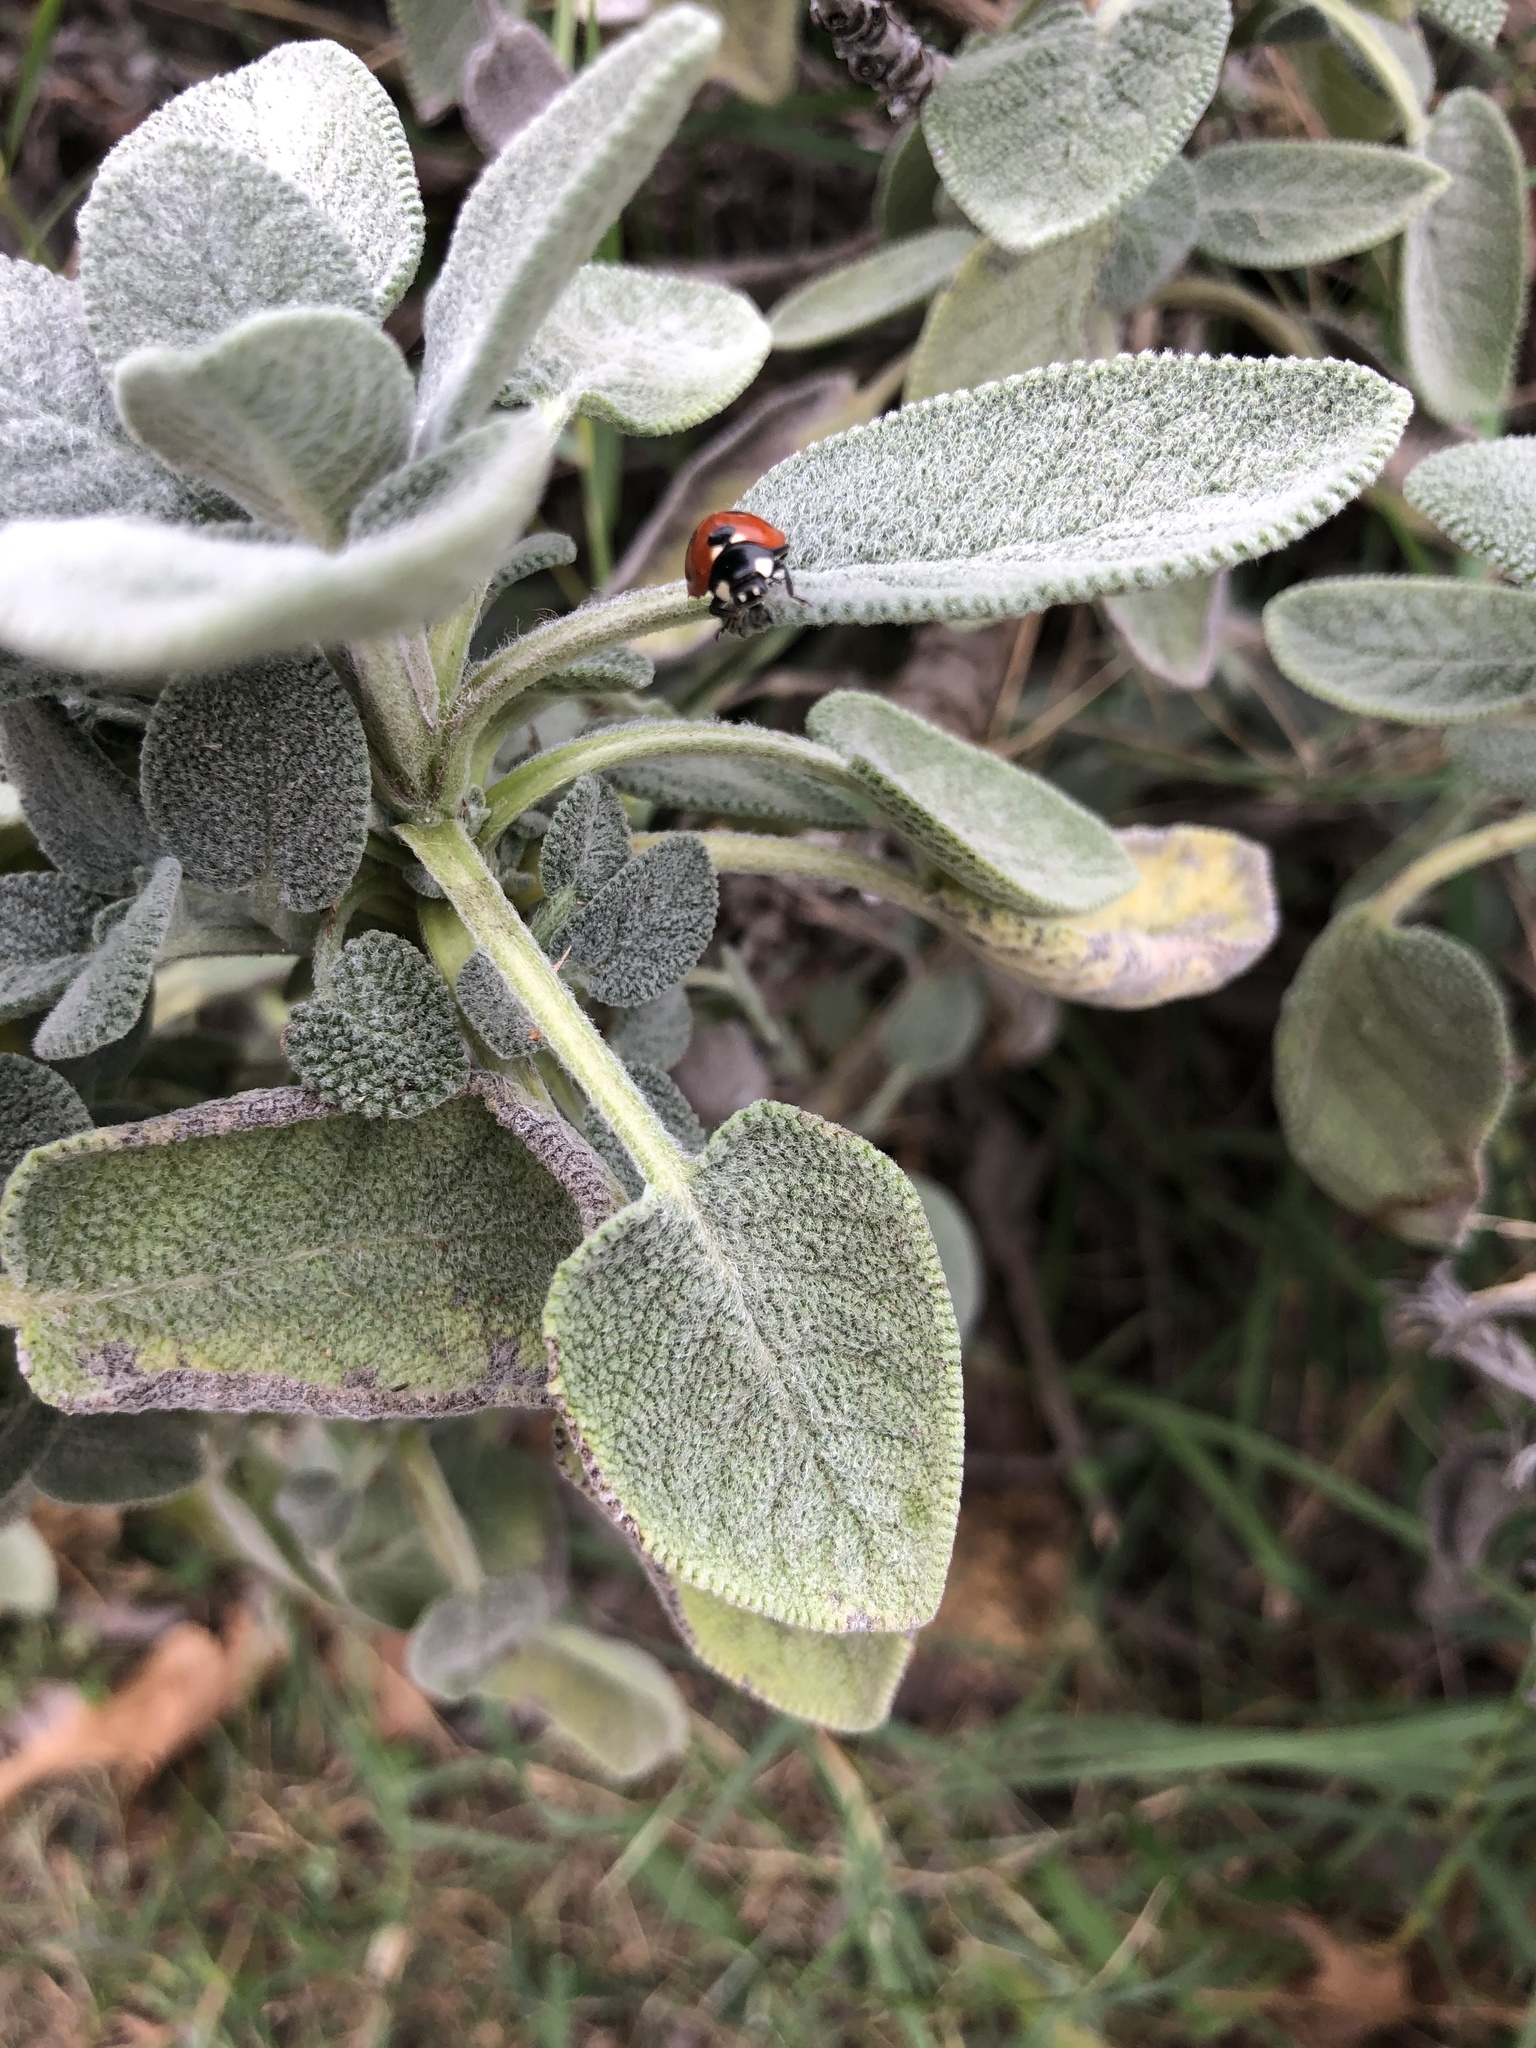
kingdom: Animalia
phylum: Arthropoda
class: Insecta
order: Coleoptera
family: Coccinellidae
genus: Coccinella
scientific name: Coccinella septempunctata
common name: Sevenspotted lady beetle
